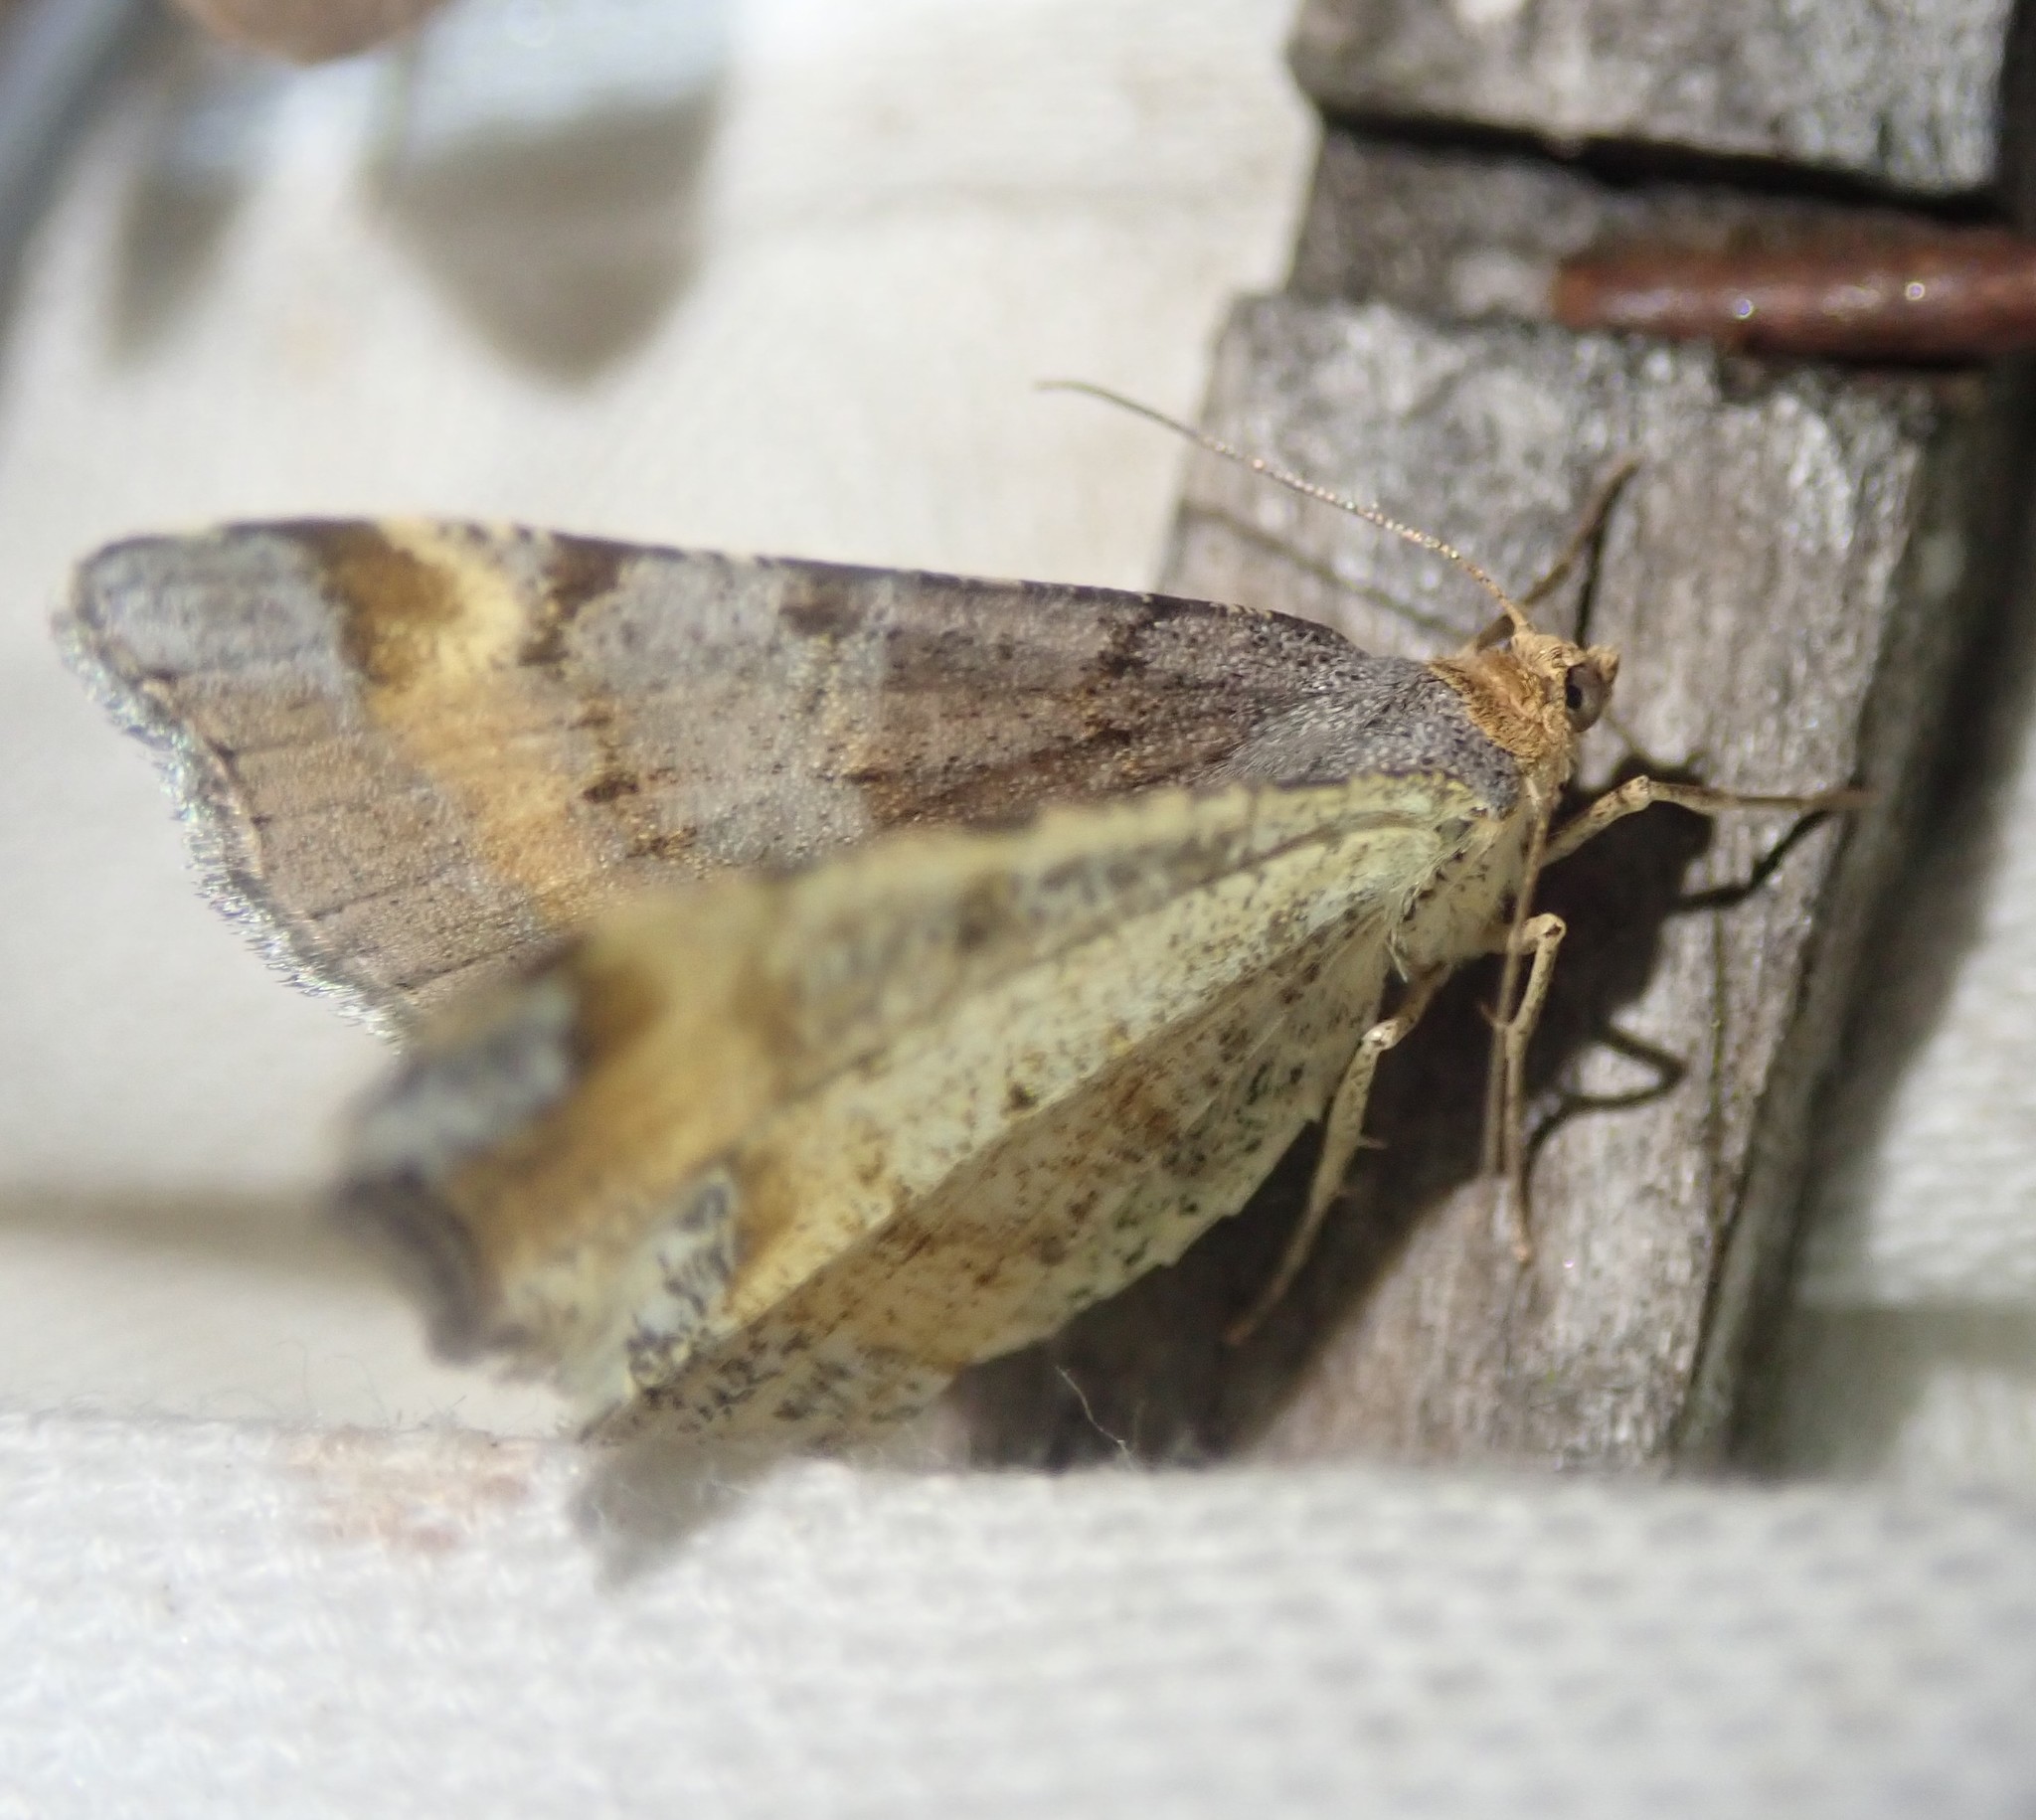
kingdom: Animalia
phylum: Arthropoda
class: Insecta
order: Lepidoptera
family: Geometridae
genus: Macaria
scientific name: Macaria liturata
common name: Tawny-barred angle
